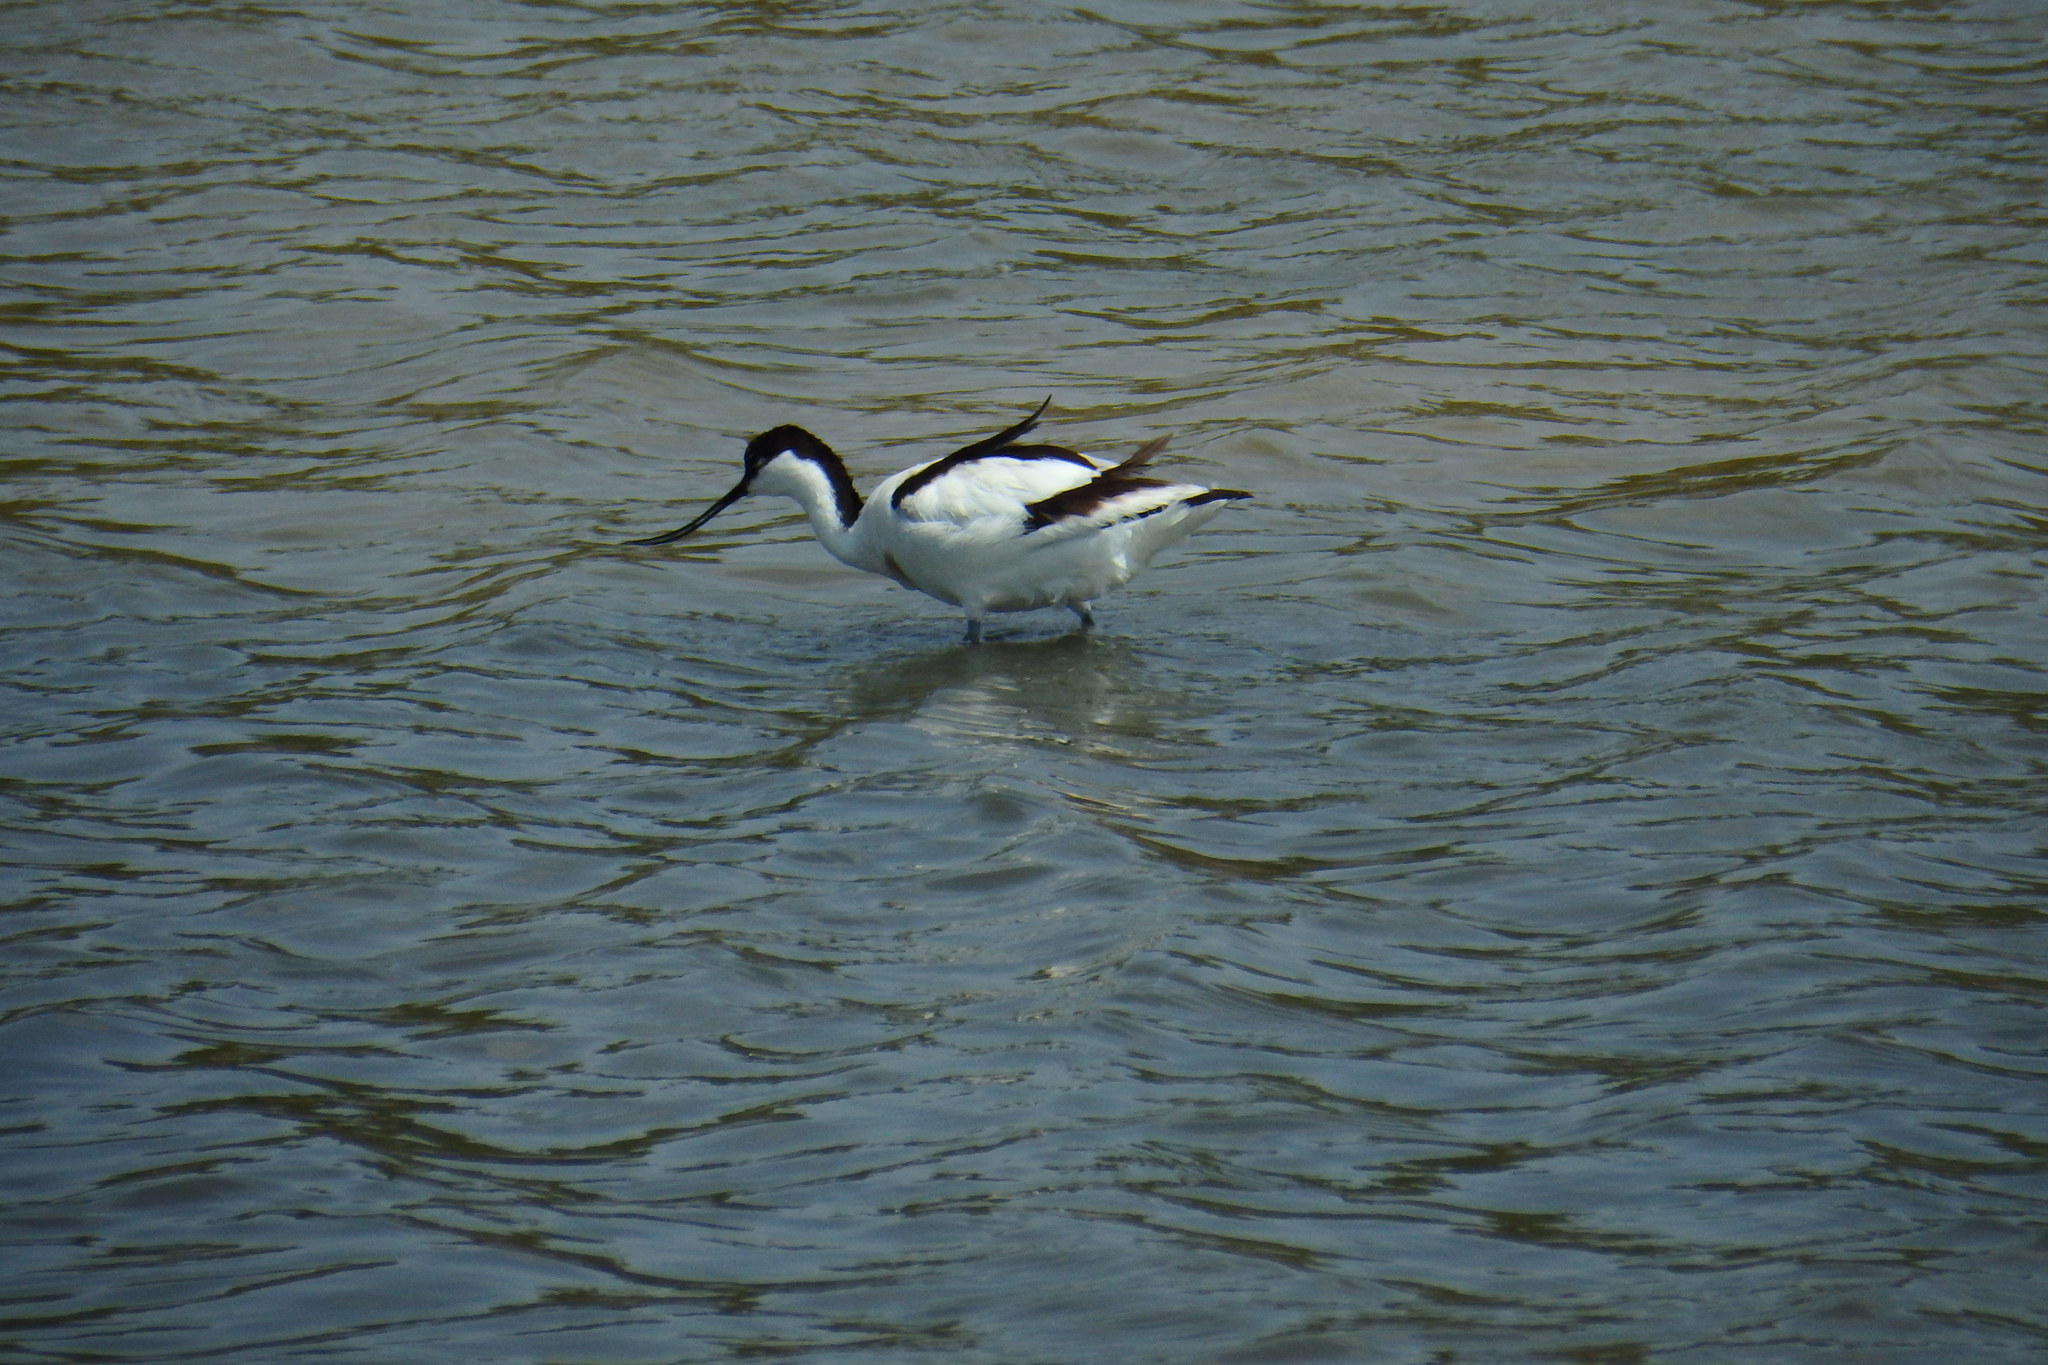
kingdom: Animalia
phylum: Chordata
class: Aves
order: Charadriiformes
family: Recurvirostridae
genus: Recurvirostra
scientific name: Recurvirostra avosetta
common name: Pied avocet
